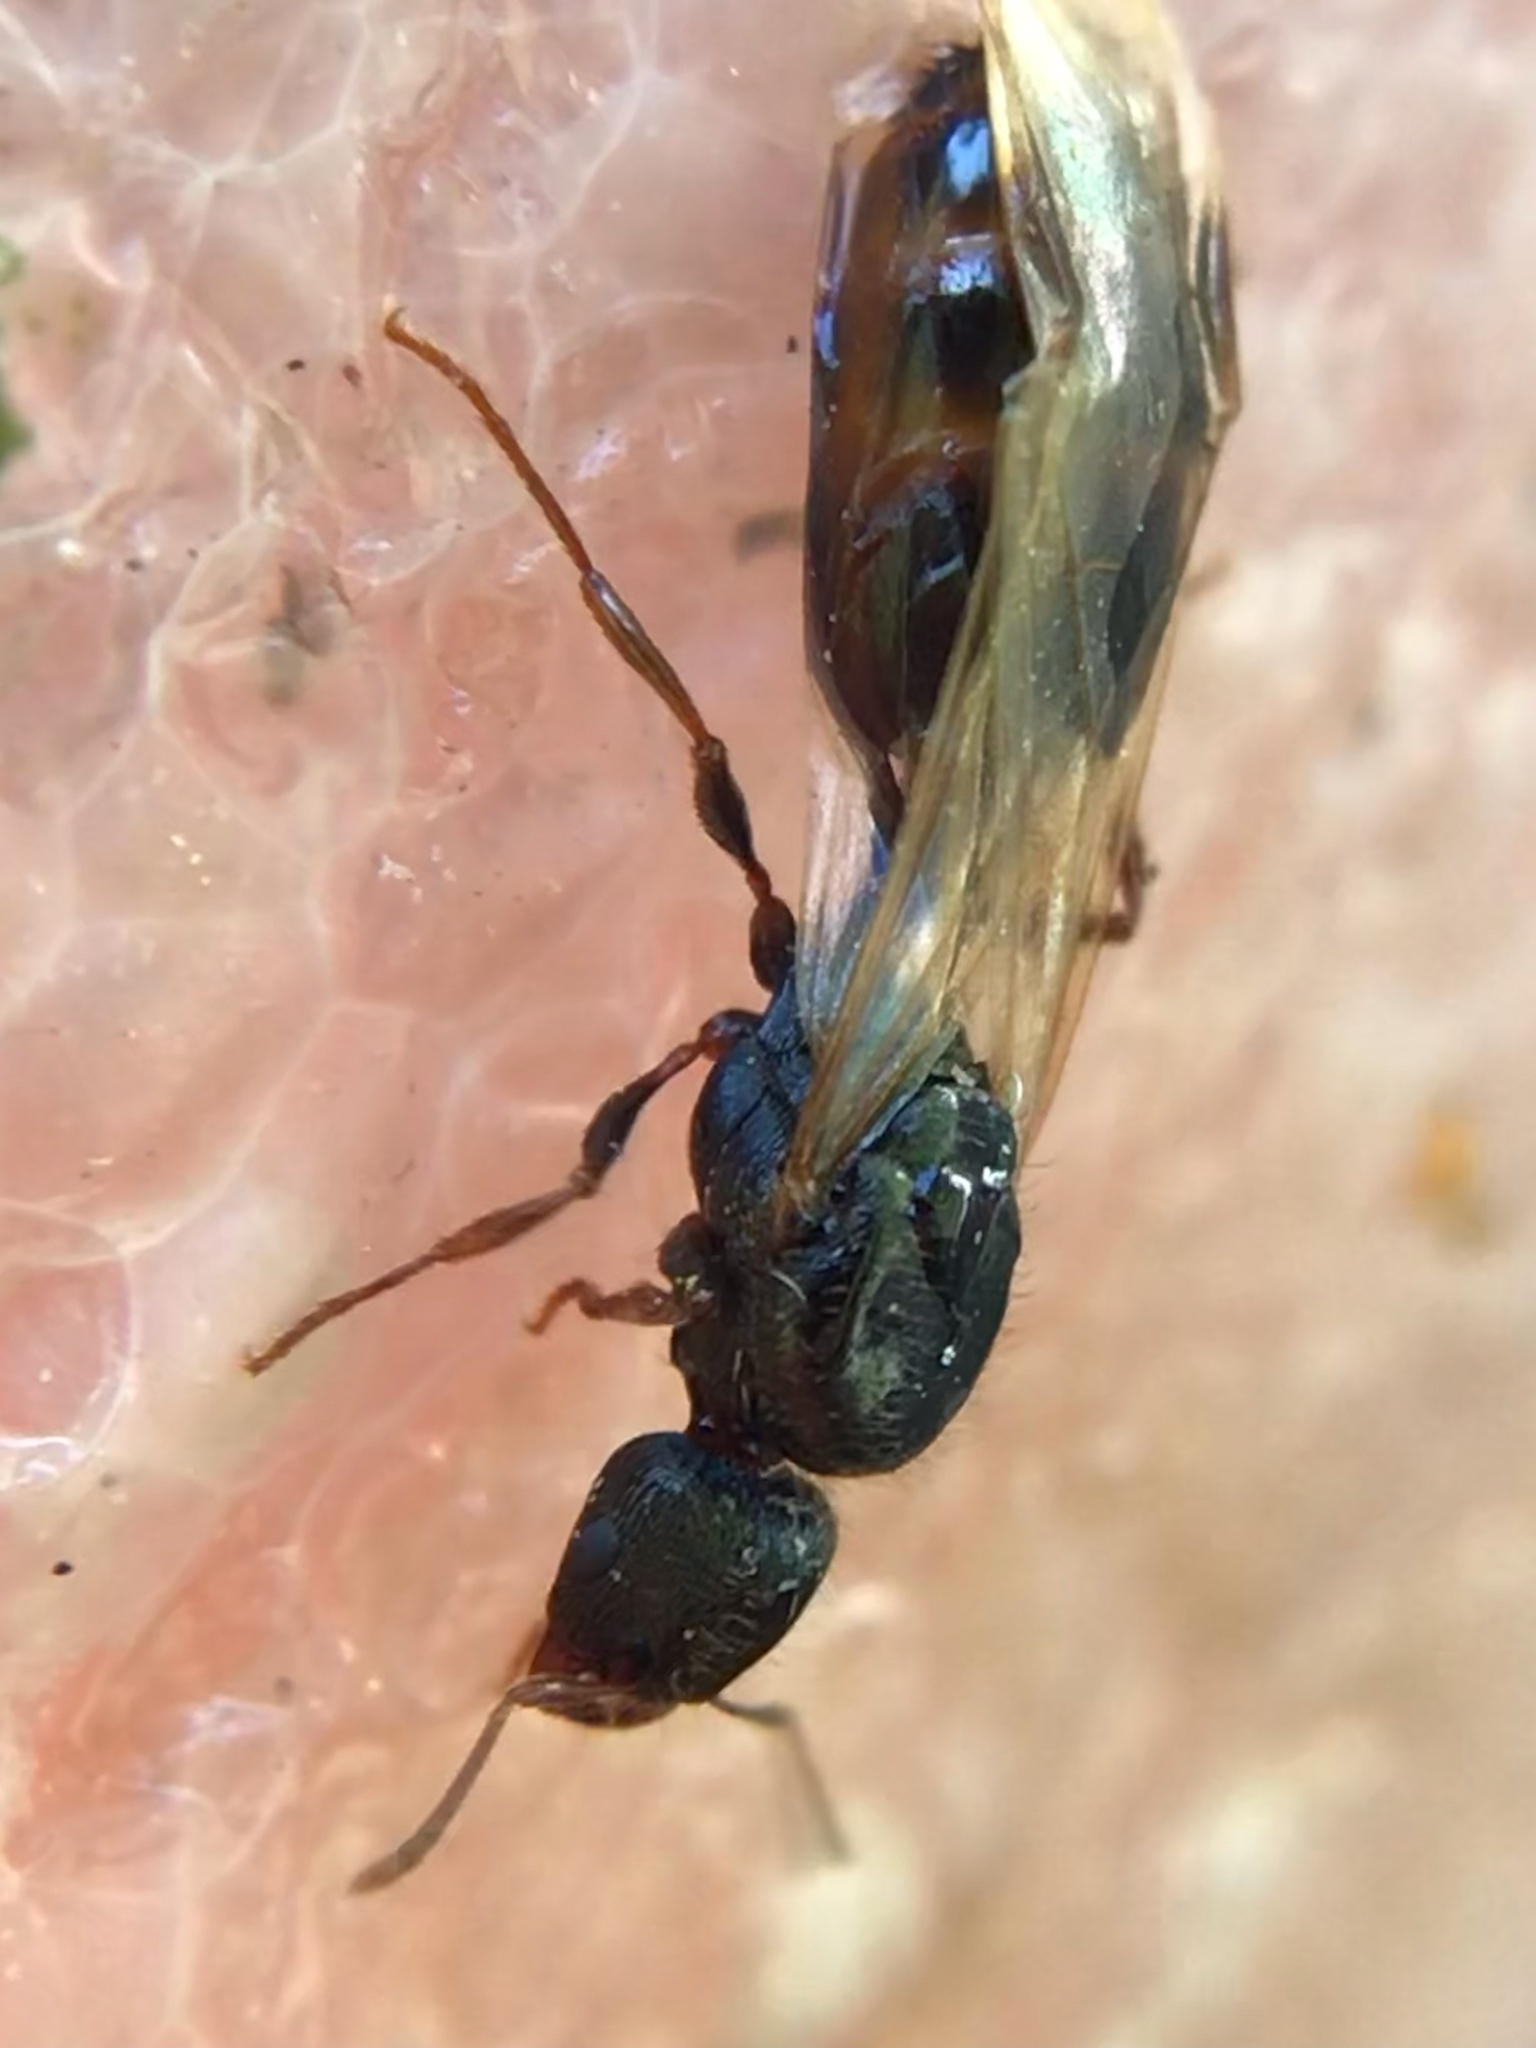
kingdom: Animalia
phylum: Arthropoda
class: Insecta
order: Hymenoptera
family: Formicidae
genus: Tetramorium
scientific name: Tetramorium immigrans
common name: Pavement ant
